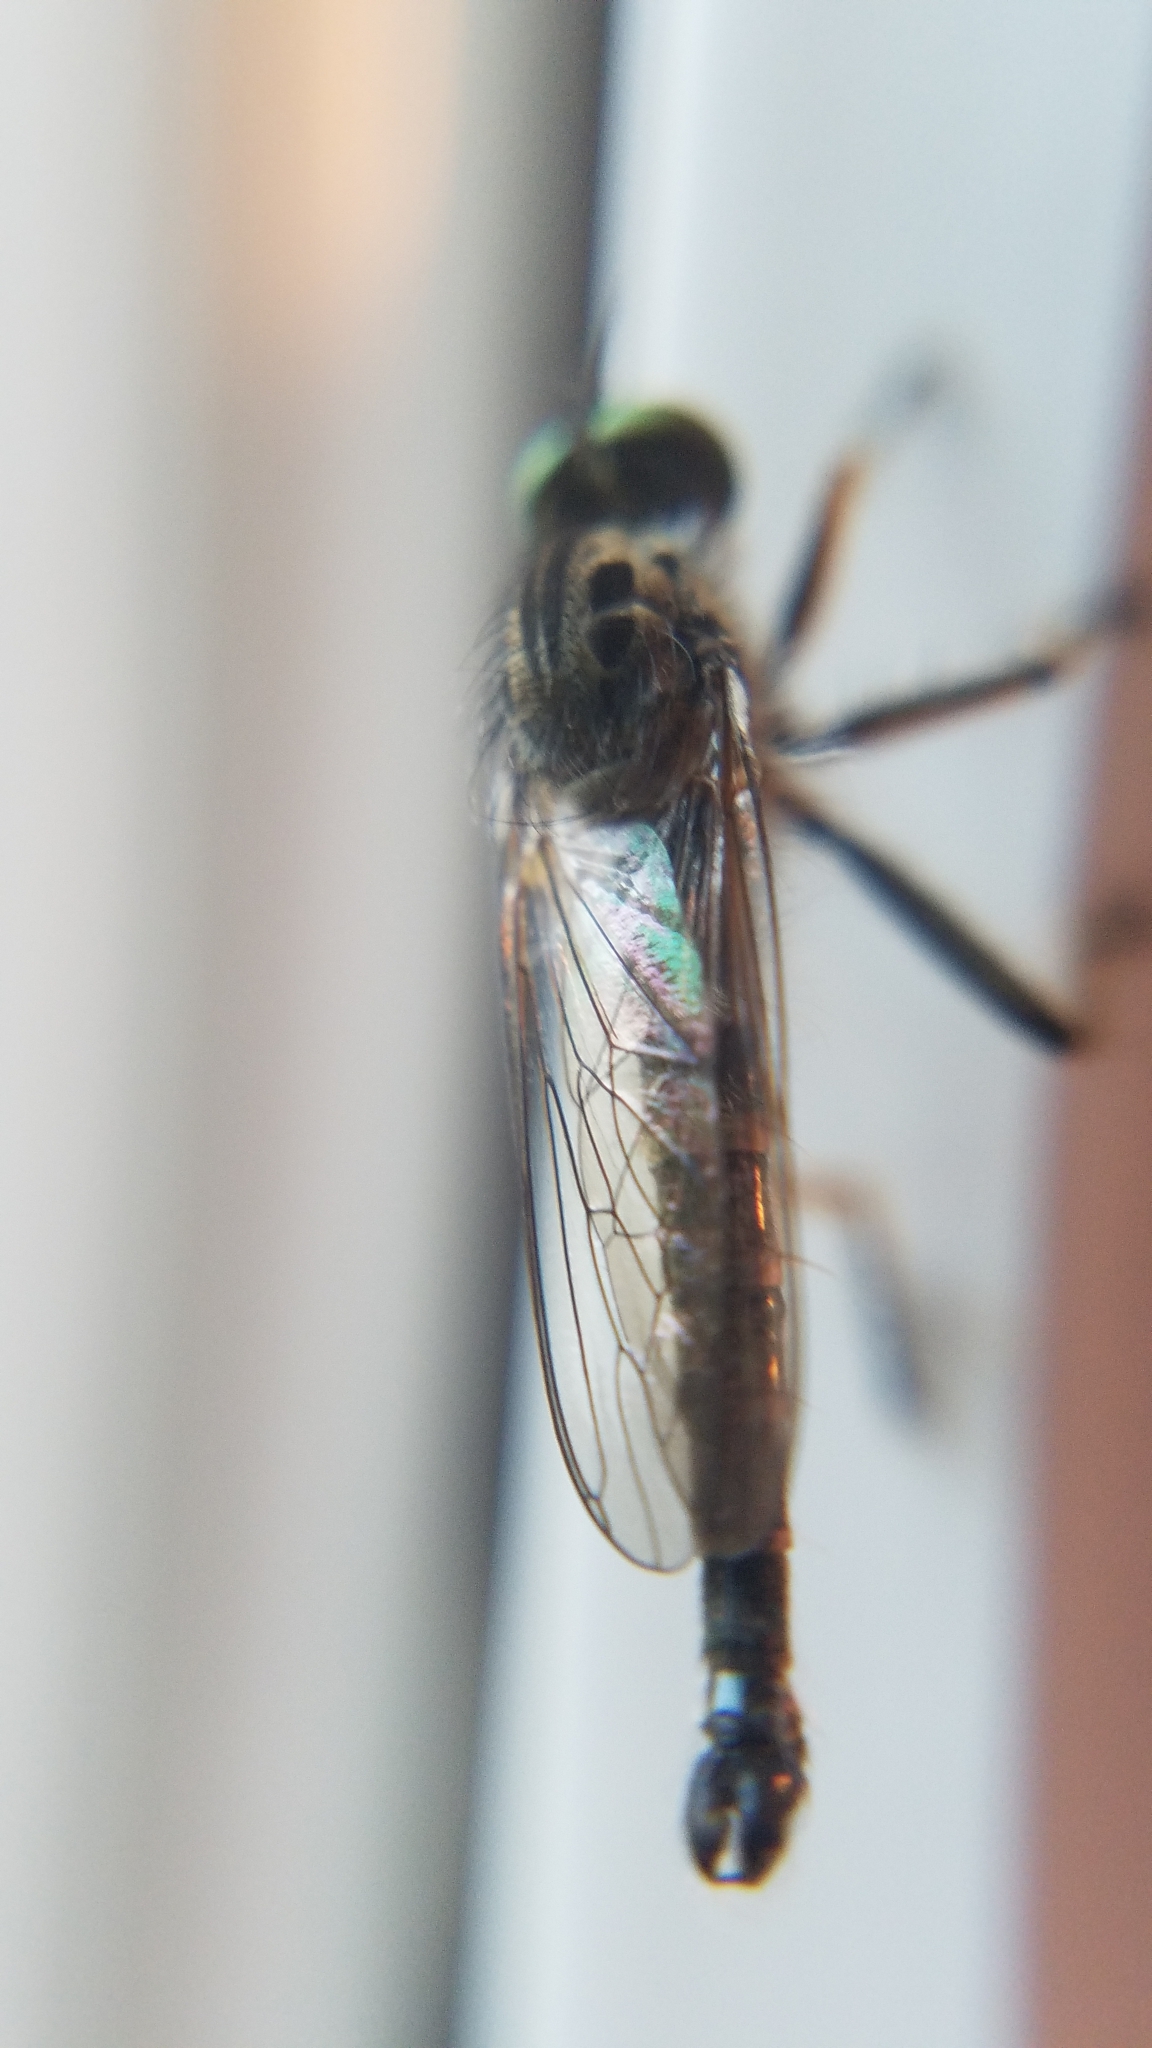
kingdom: Animalia
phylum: Arthropoda
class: Insecta
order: Diptera
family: Asilidae
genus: Asilus
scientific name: Asilus flavofemoratus
